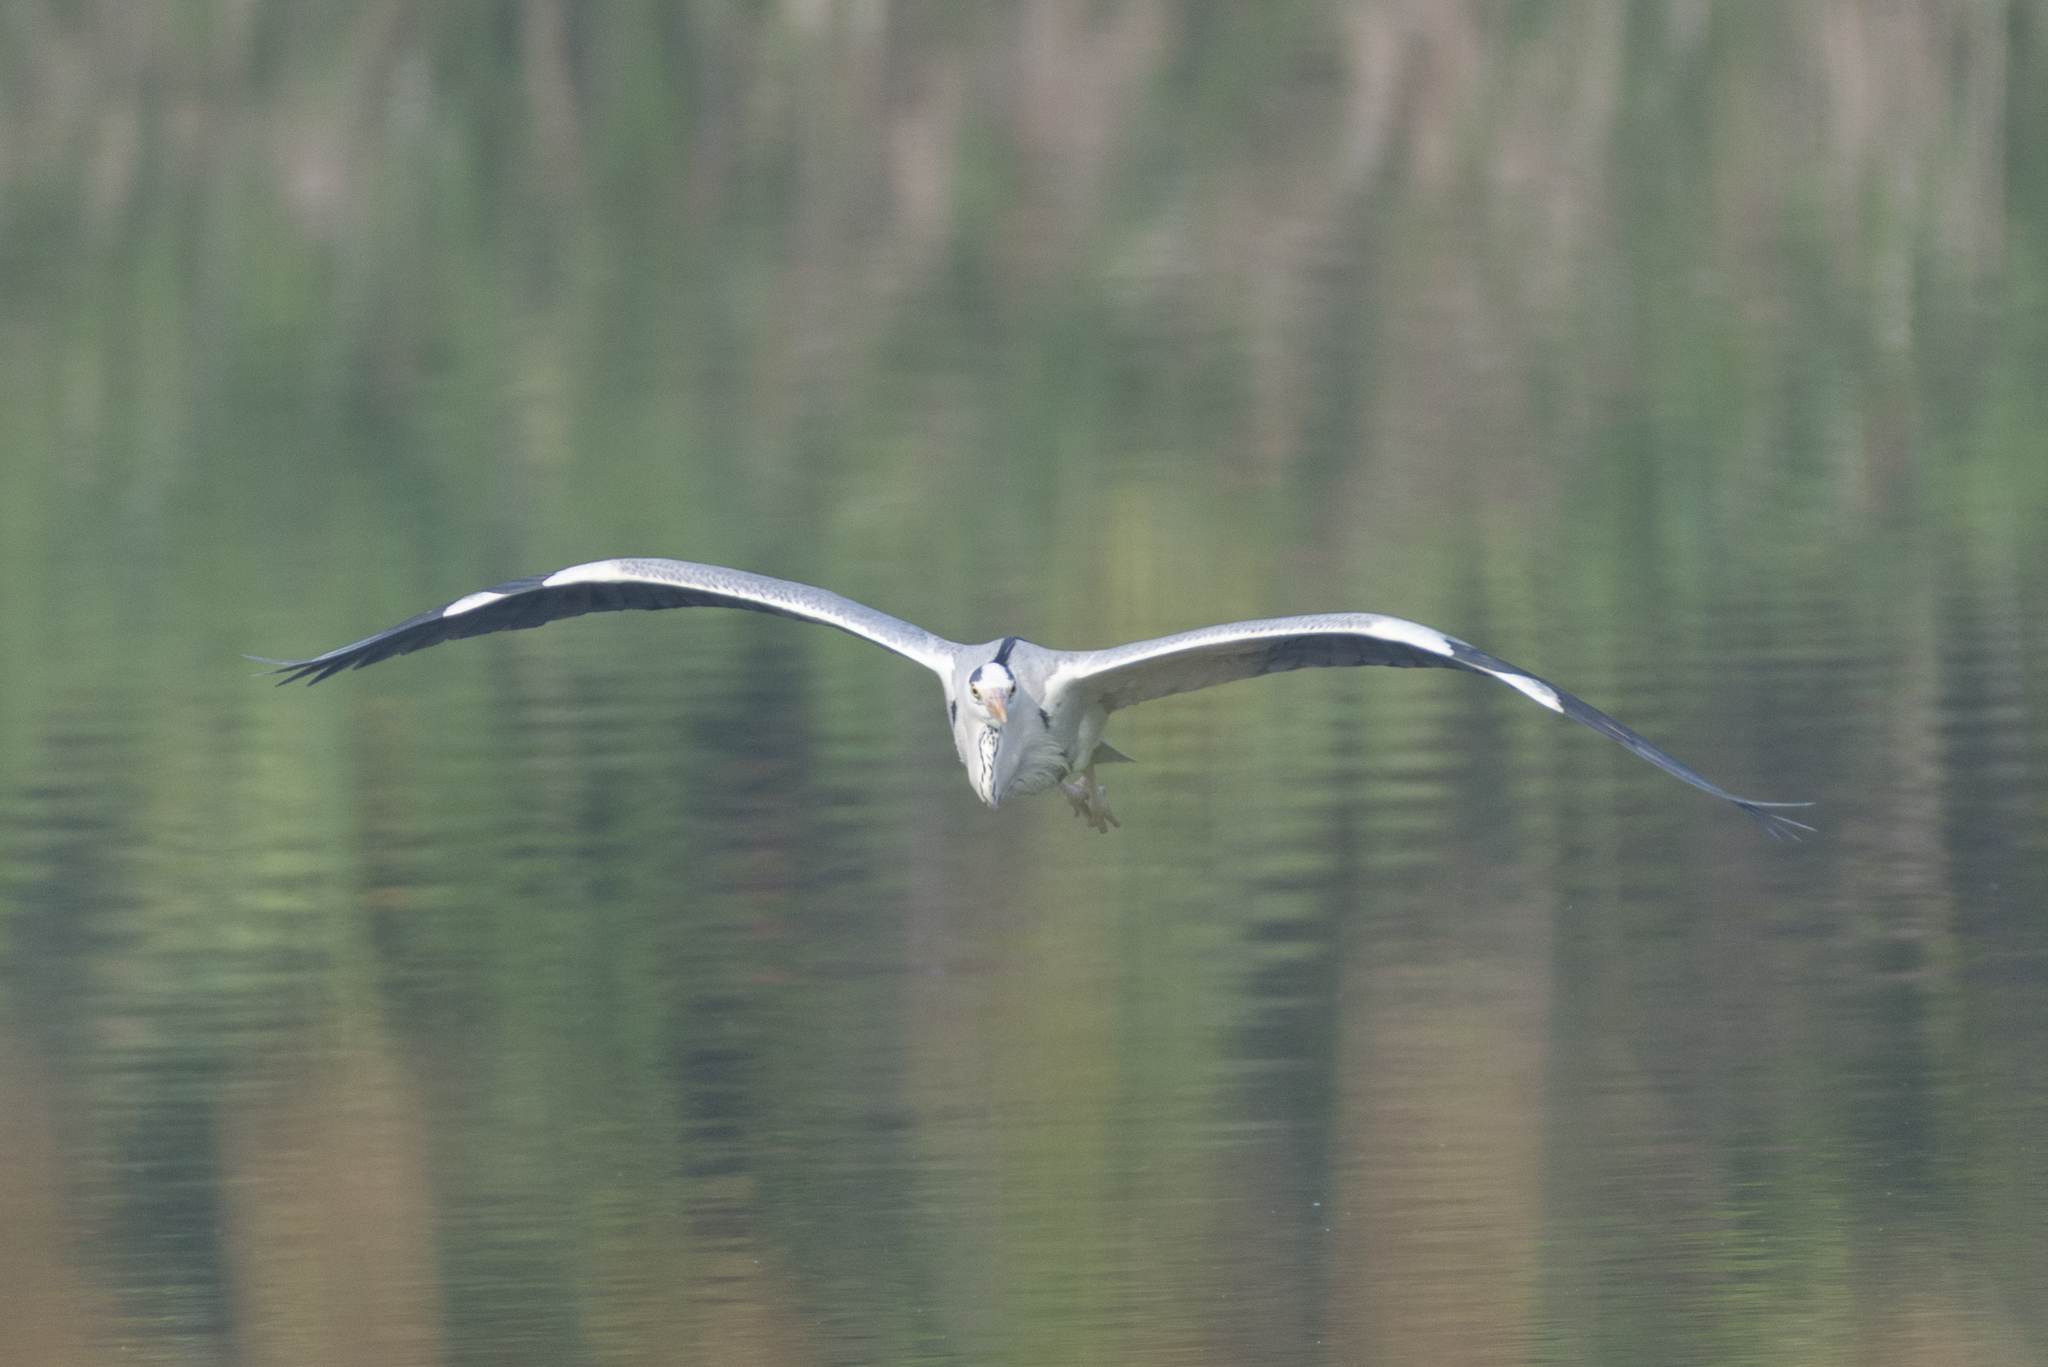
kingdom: Animalia
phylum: Chordata
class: Aves
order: Pelecaniformes
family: Ardeidae
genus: Ardea
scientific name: Ardea cinerea
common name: Grey heron
